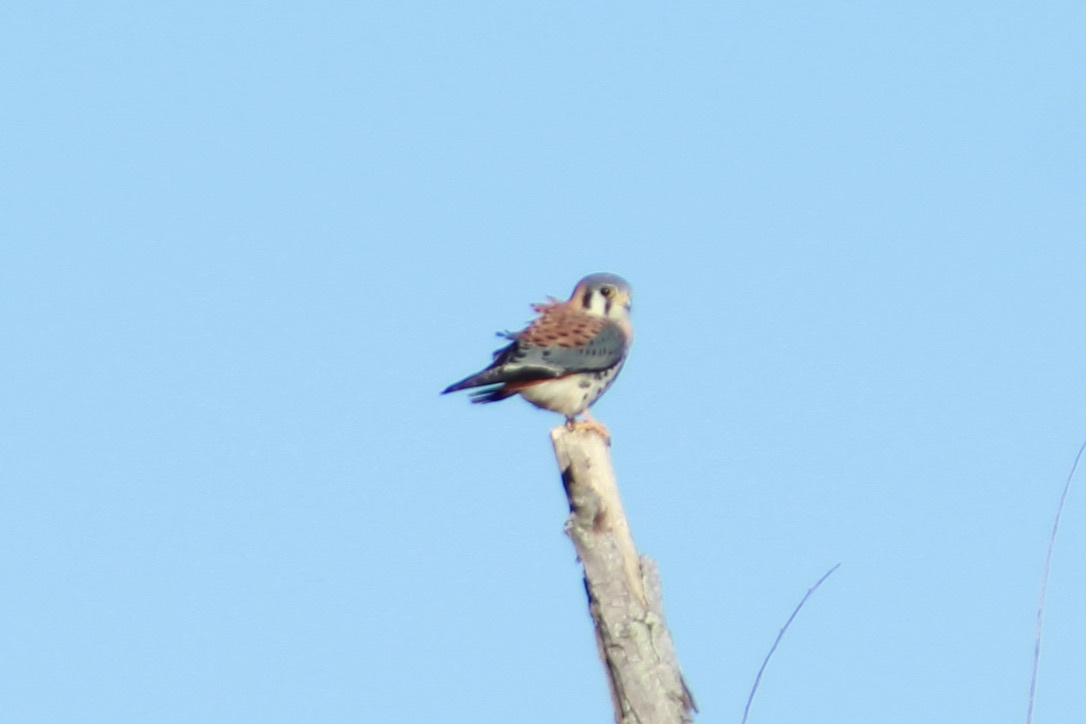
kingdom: Animalia
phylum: Chordata
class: Aves
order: Falconiformes
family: Falconidae
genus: Falco
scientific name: Falco sparverius
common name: American kestrel
